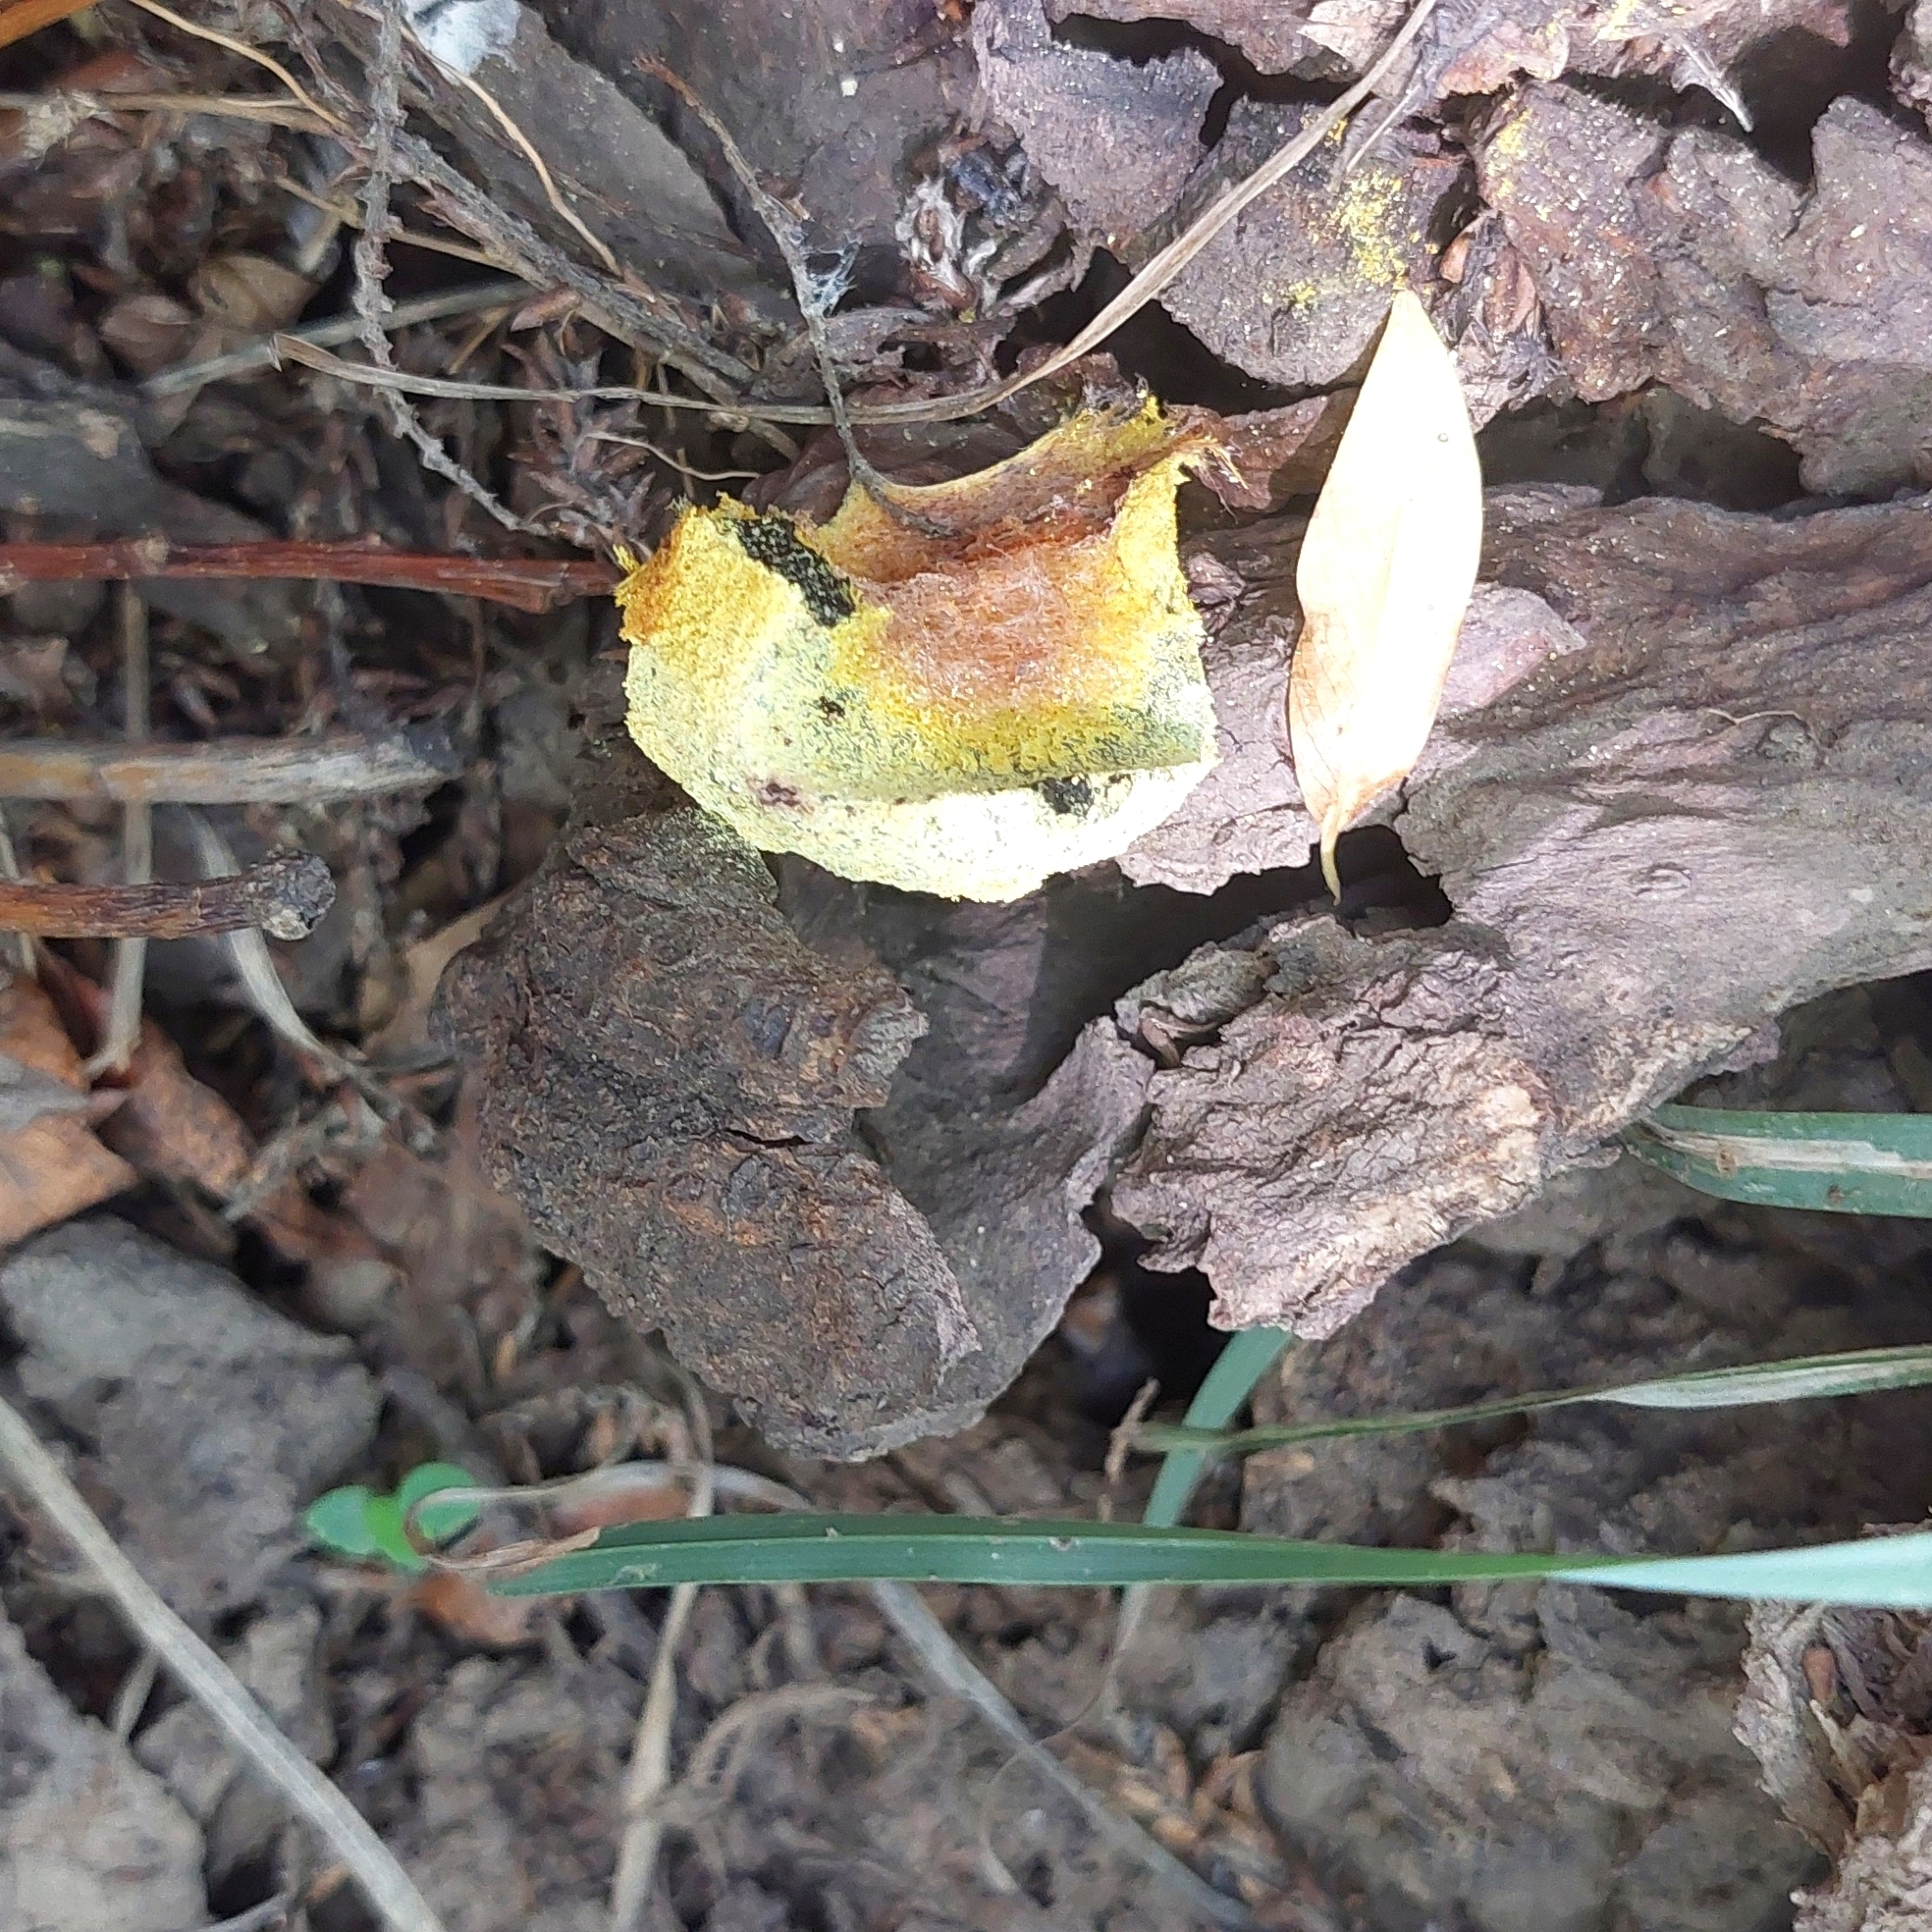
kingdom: Protozoa
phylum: Mycetozoa
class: Myxomycetes
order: Physarales
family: Physaraceae
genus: Fuligo
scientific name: Fuligo septica
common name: Dog vomit slime mold
